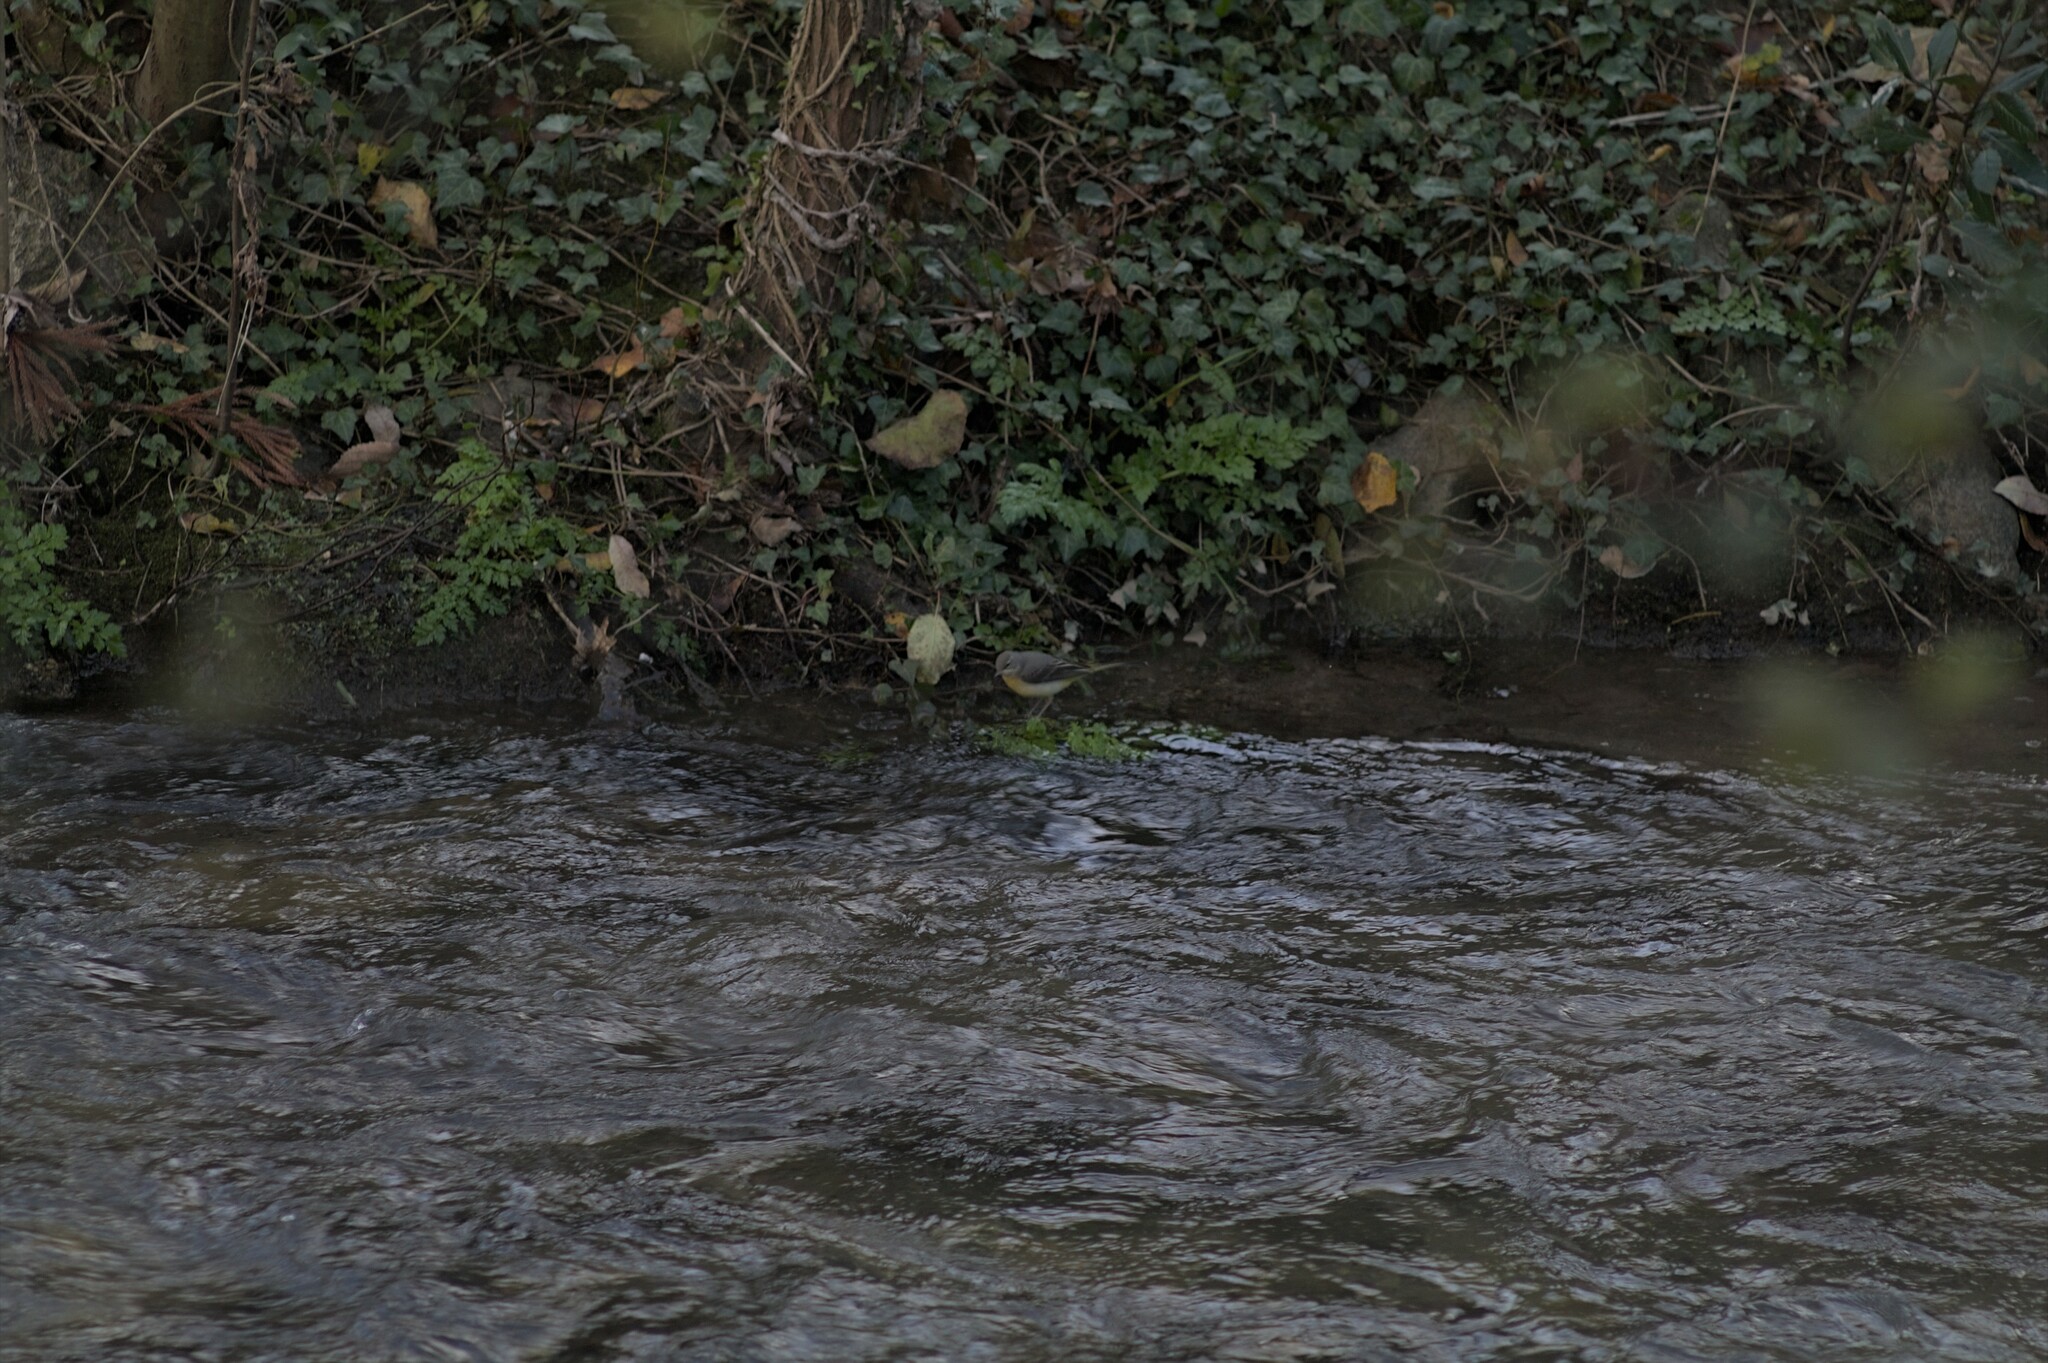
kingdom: Animalia
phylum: Chordata
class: Aves
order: Passeriformes
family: Motacillidae
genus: Motacilla
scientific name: Motacilla cinerea
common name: Grey wagtail
